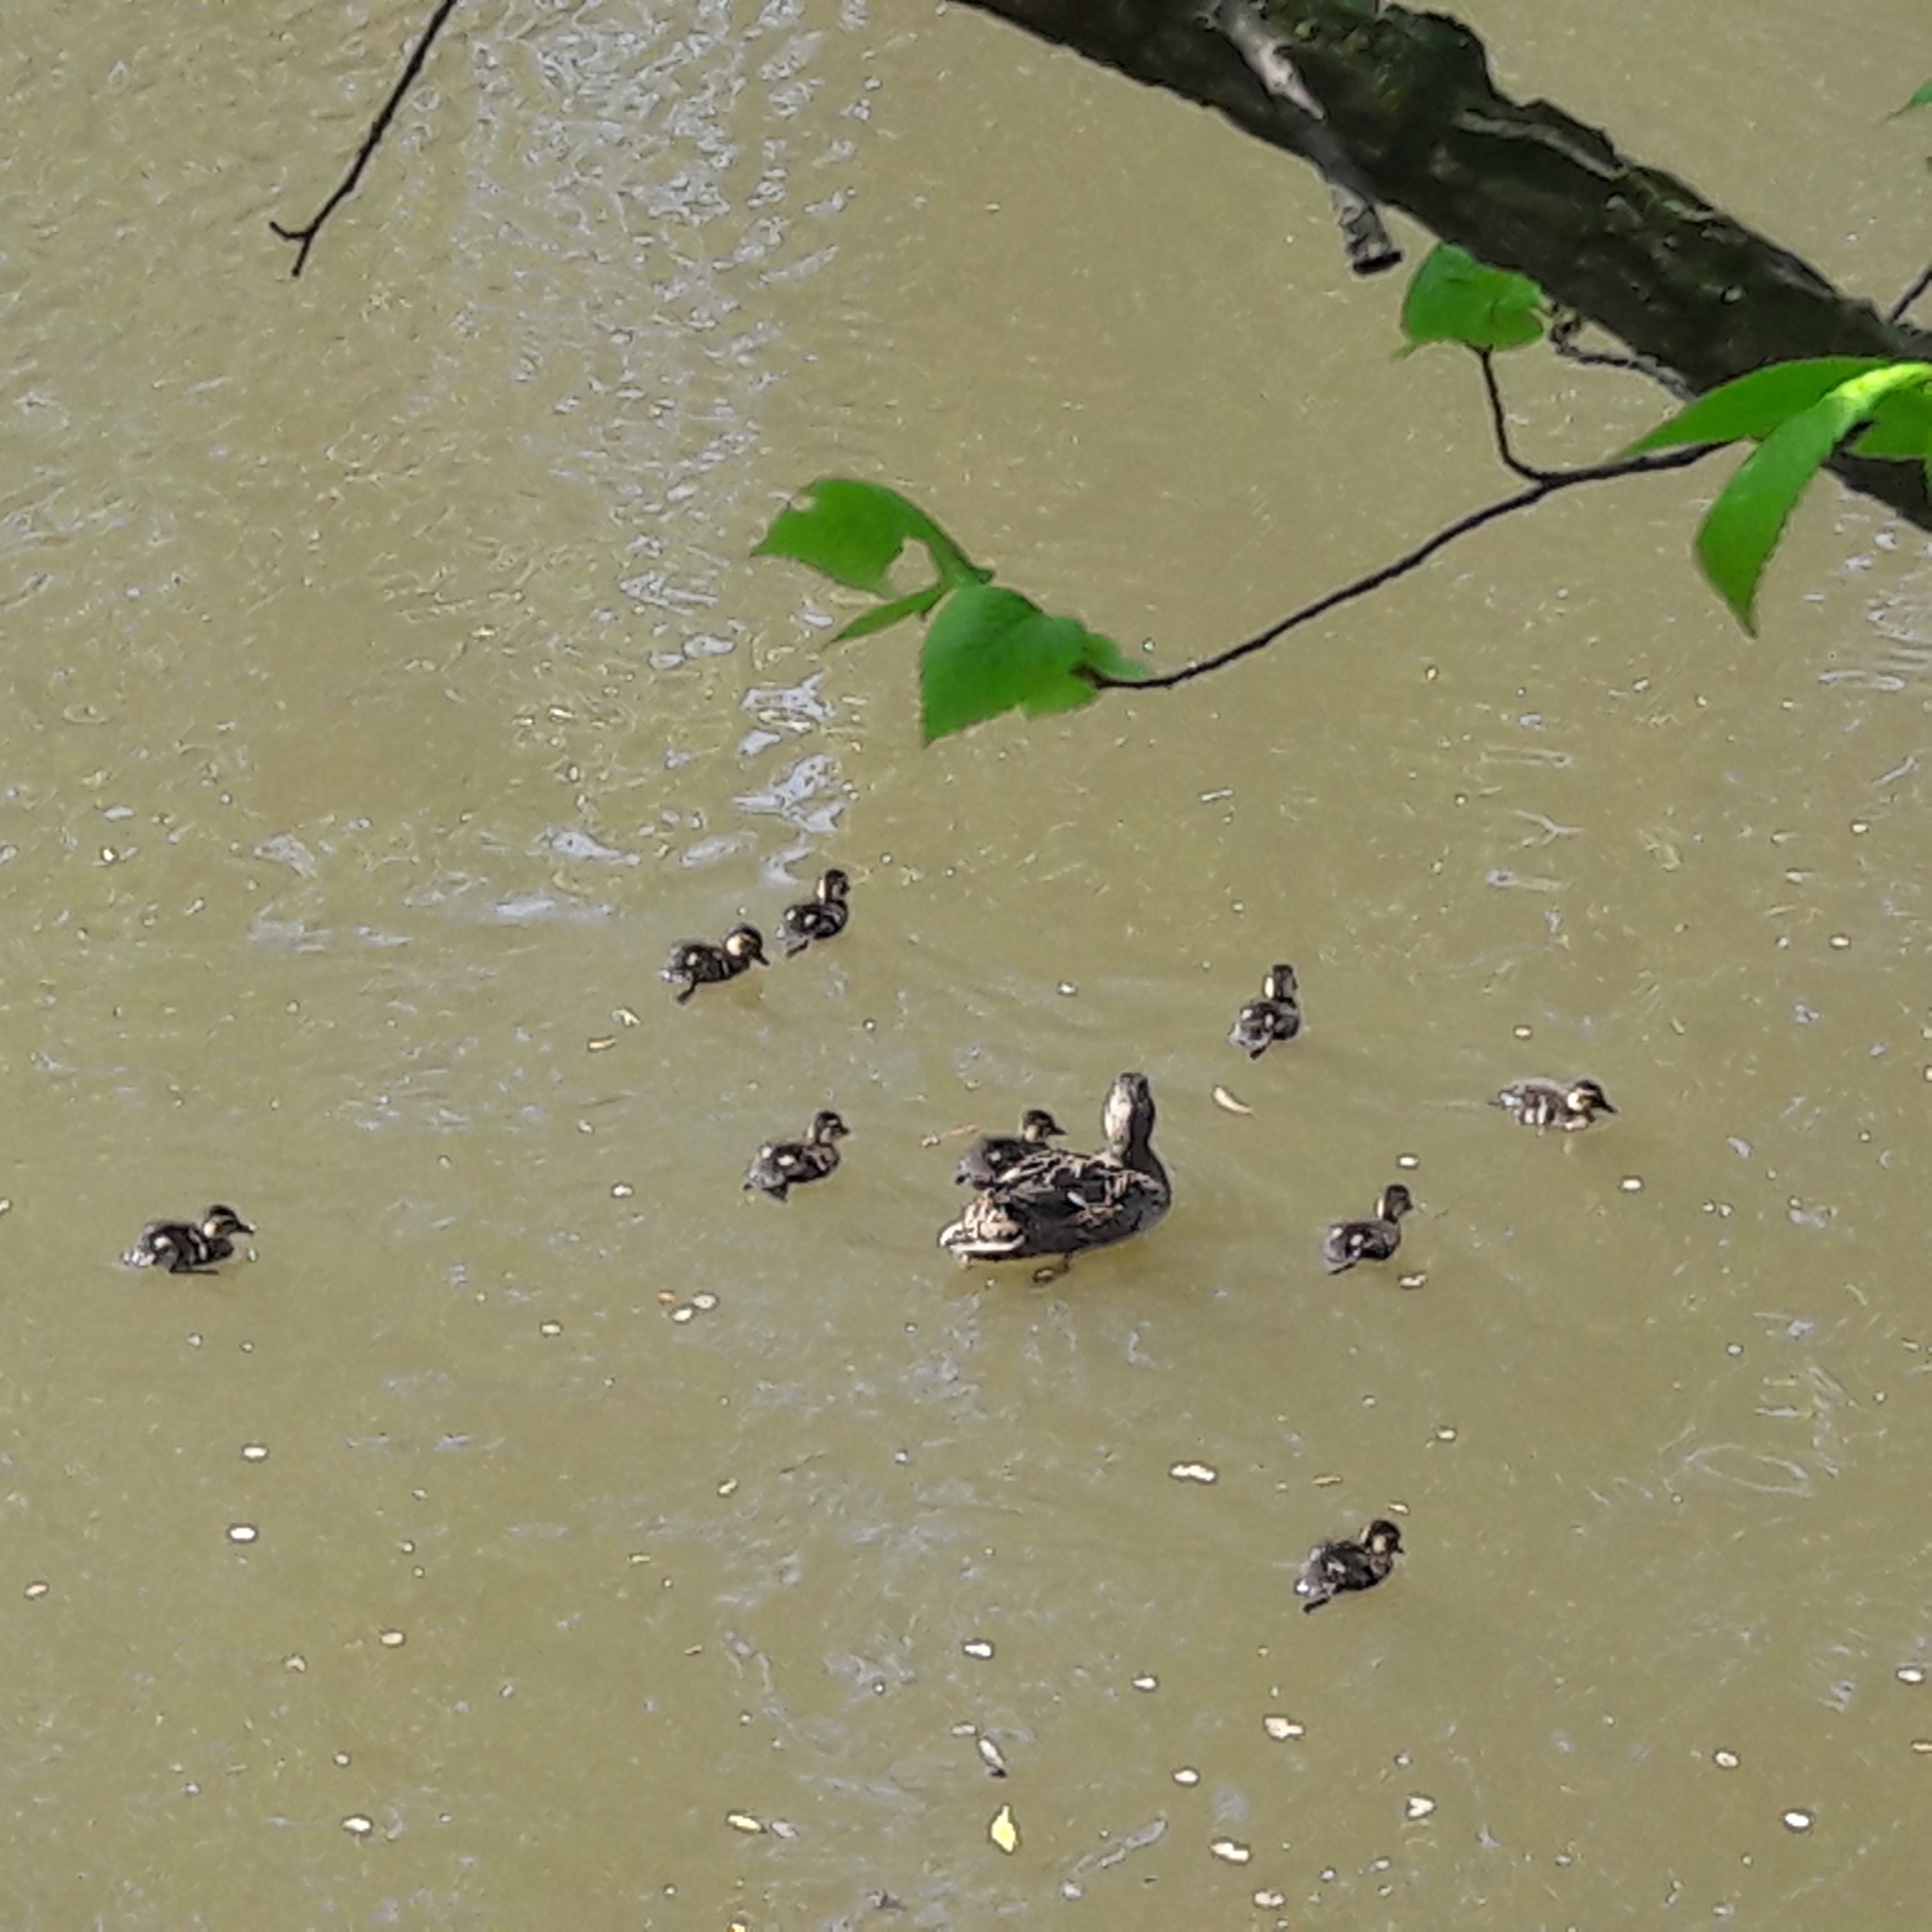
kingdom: Animalia
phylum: Chordata
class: Aves
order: Anseriformes
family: Anatidae
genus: Anas
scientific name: Anas platyrhynchos
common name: Mallard
